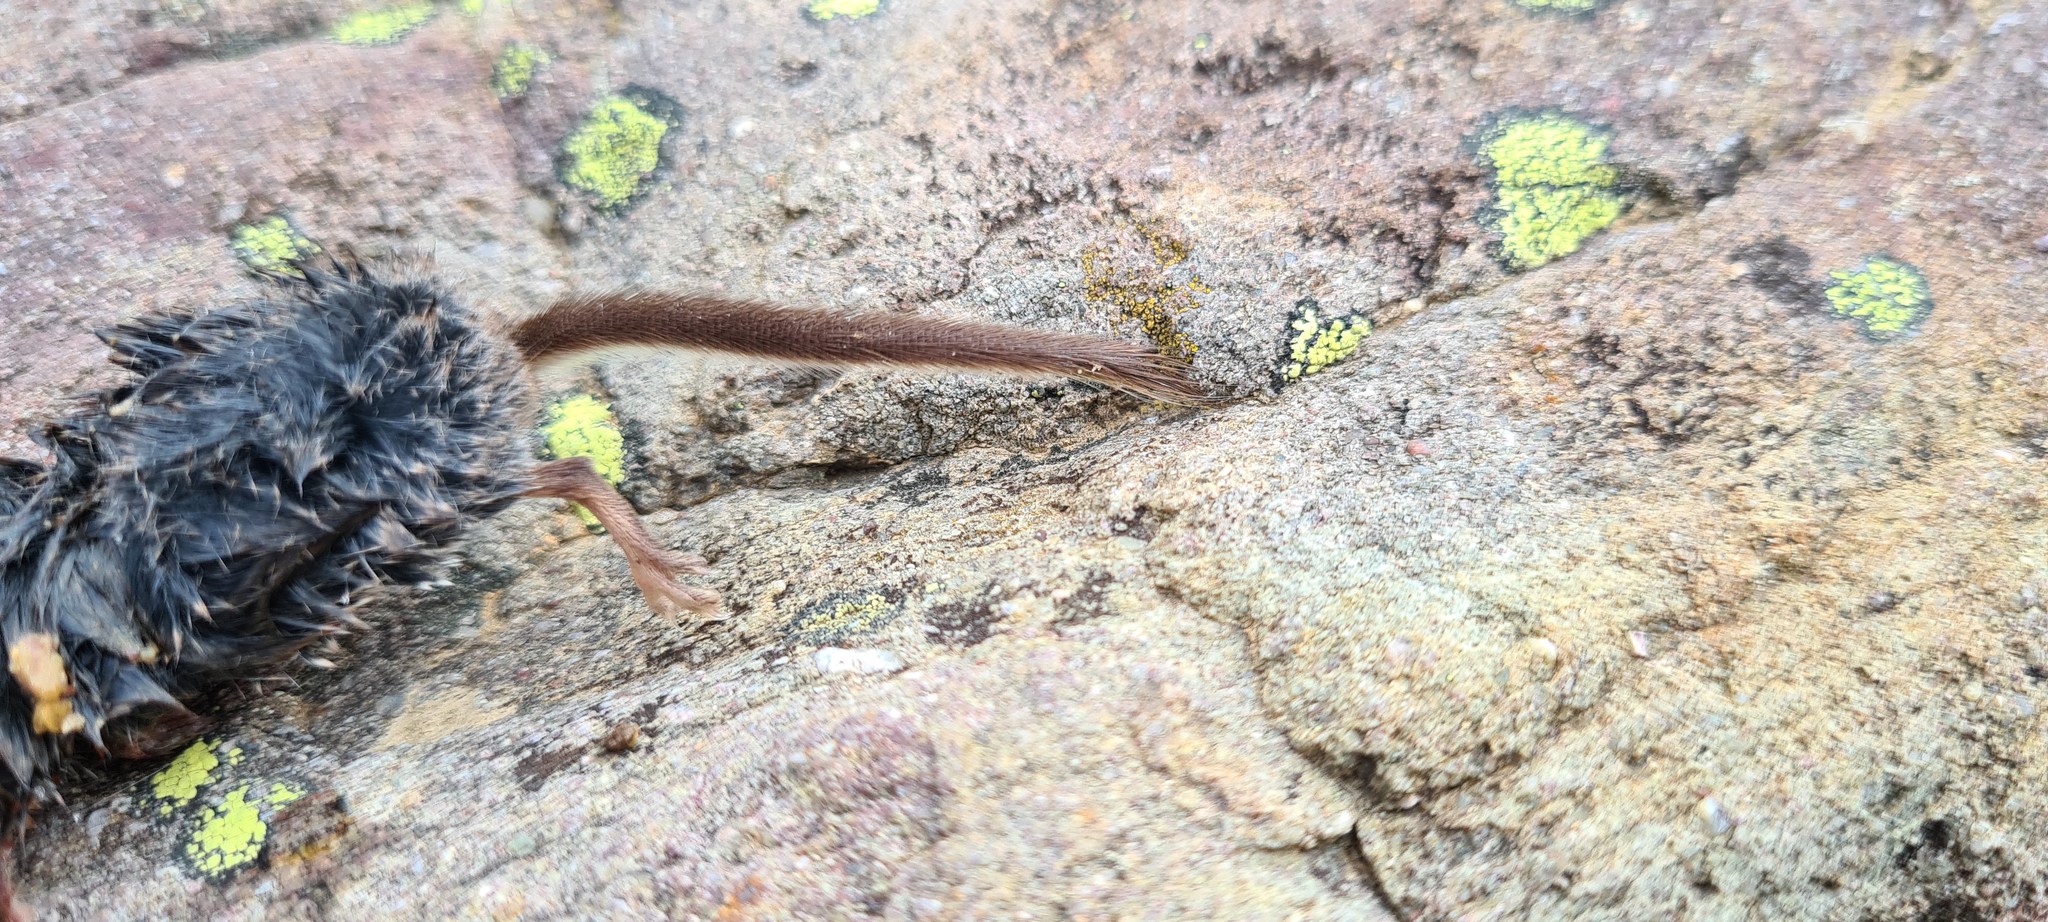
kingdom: Animalia
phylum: Chordata
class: Mammalia
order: Soricomorpha
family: Soricidae
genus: Sorex
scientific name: Sorex minutus
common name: Eurasian pygmy shrew
